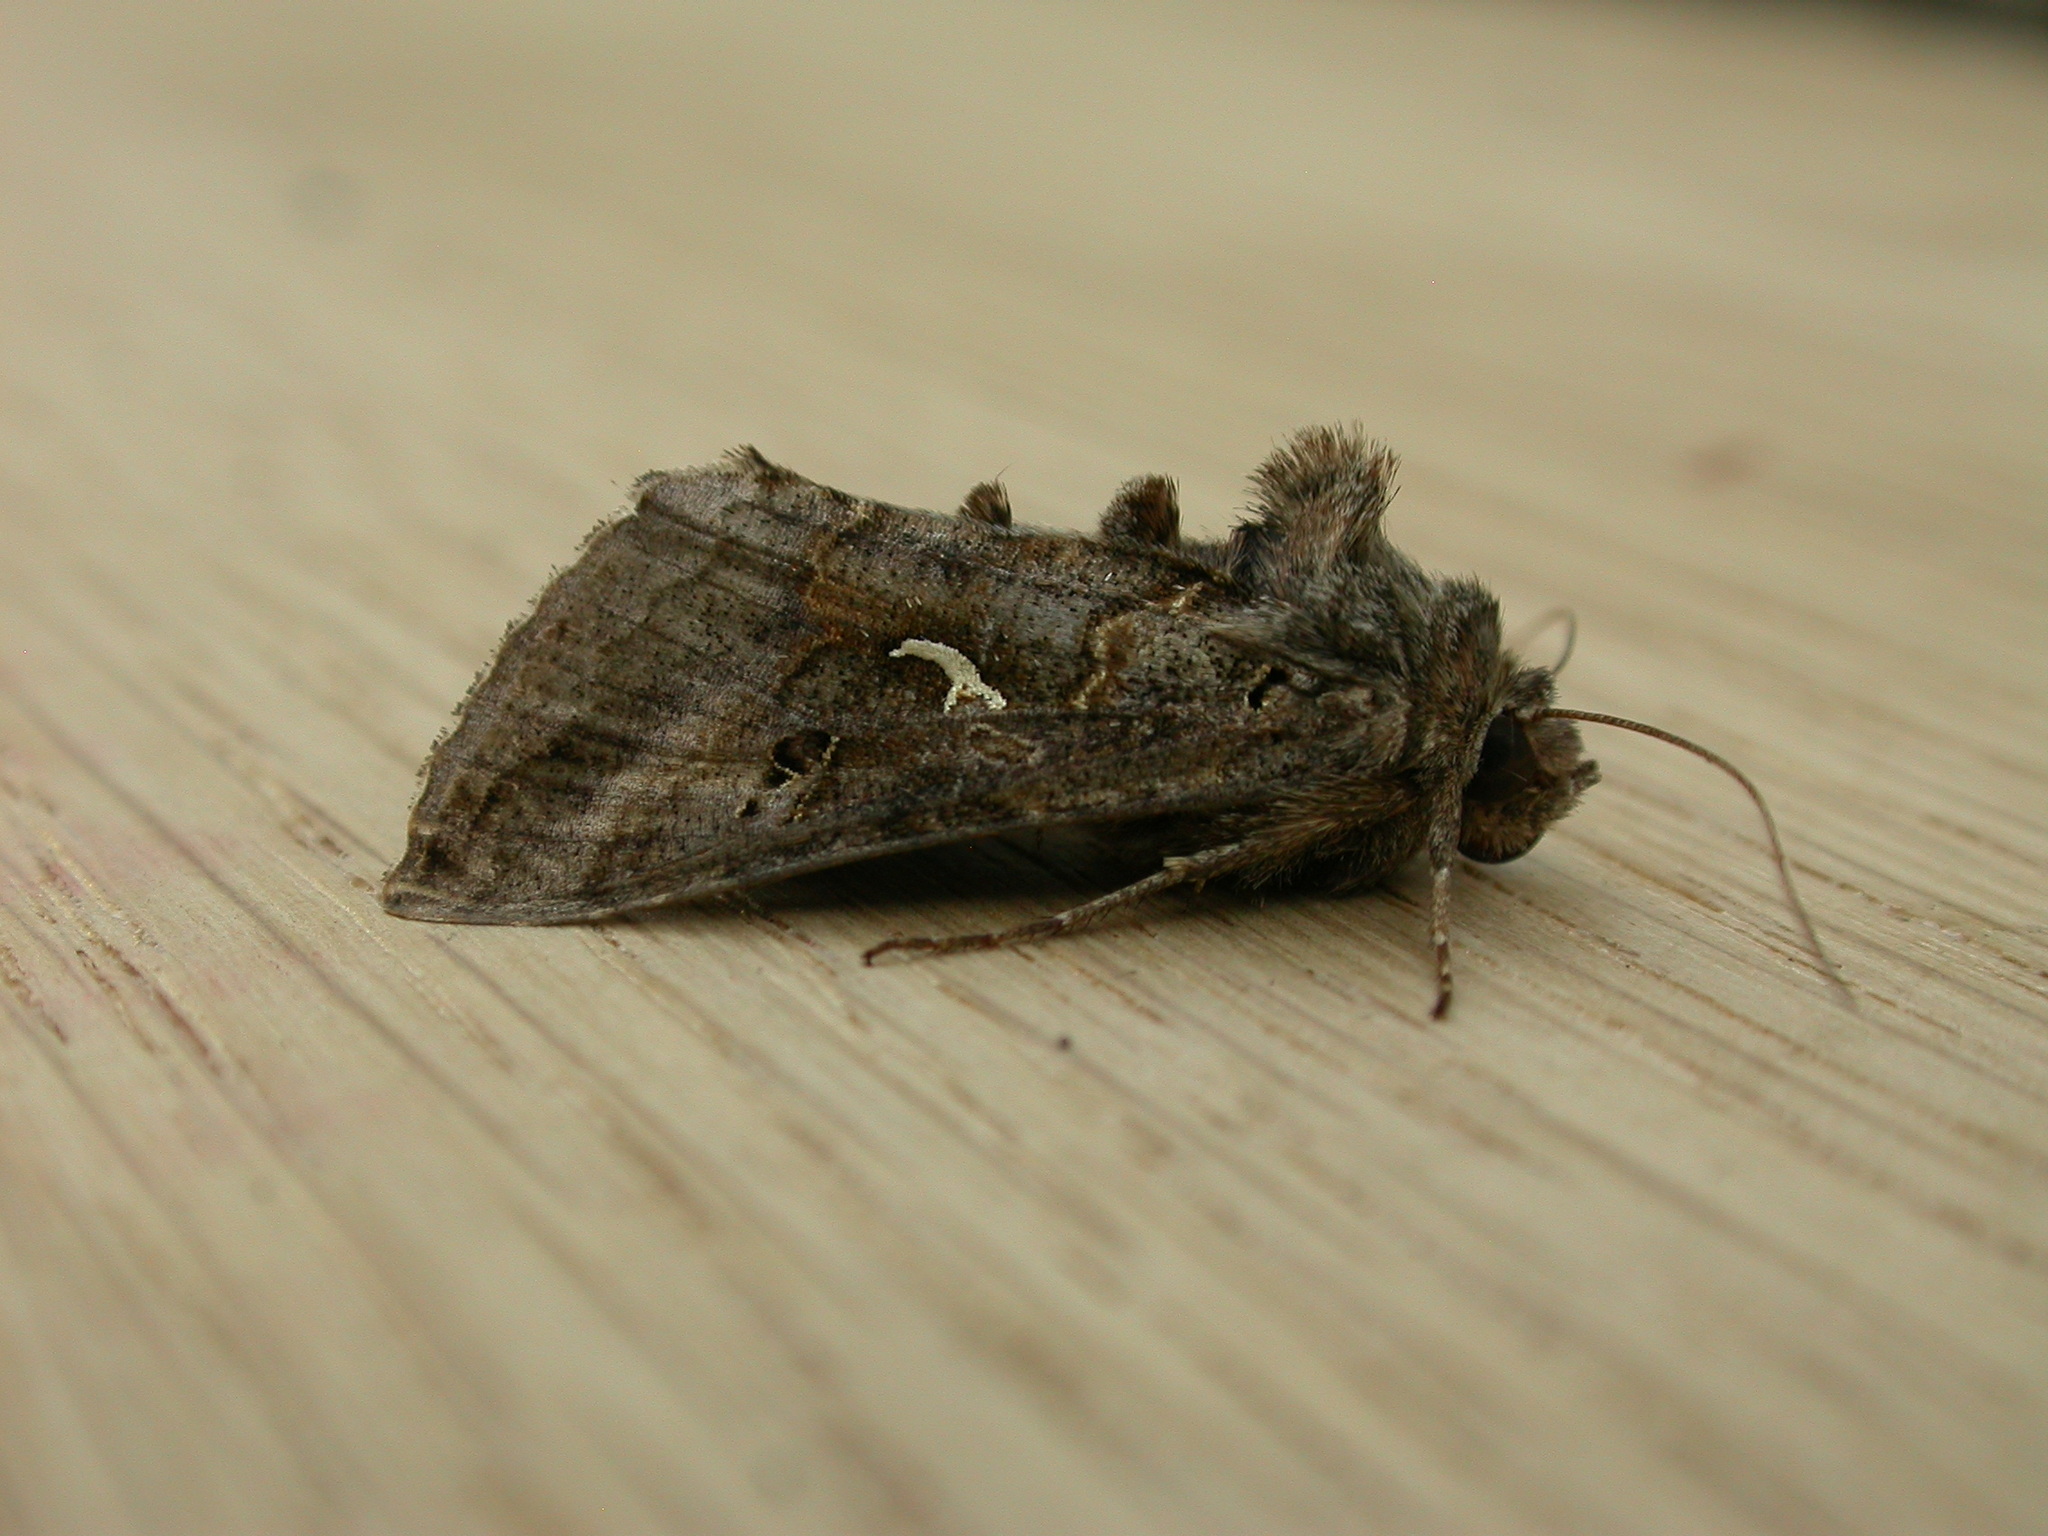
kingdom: Animalia
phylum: Arthropoda
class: Insecta
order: Lepidoptera
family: Noctuidae
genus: Autographa
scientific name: Autographa gamma
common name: Silver y
